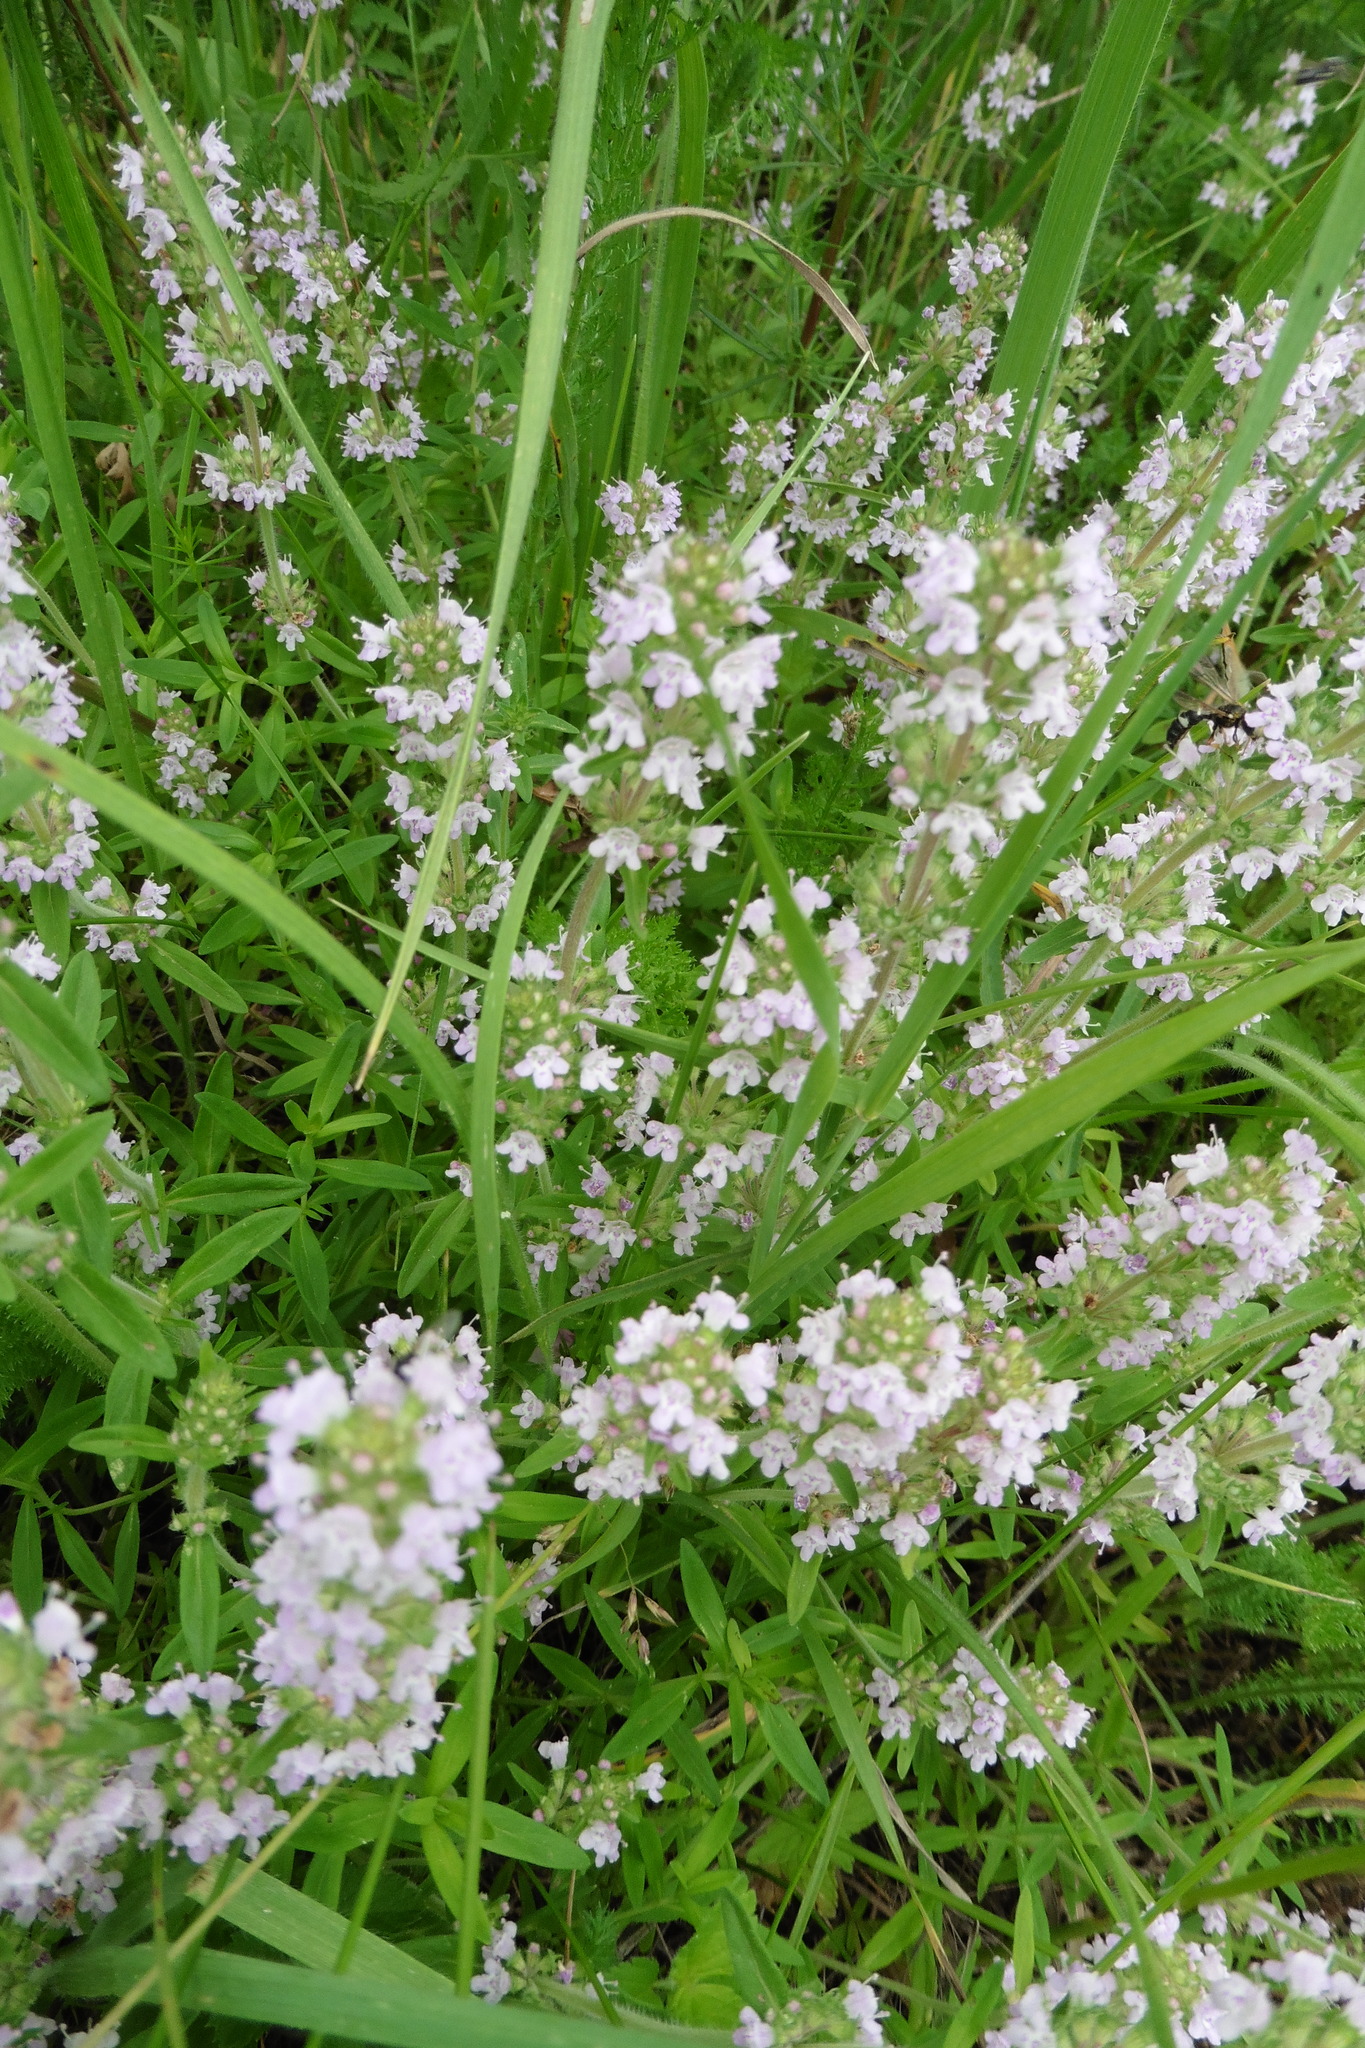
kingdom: Plantae
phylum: Tracheophyta
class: Magnoliopsida
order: Lamiales
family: Lamiaceae
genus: Thymus
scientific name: Thymus pannonicus
